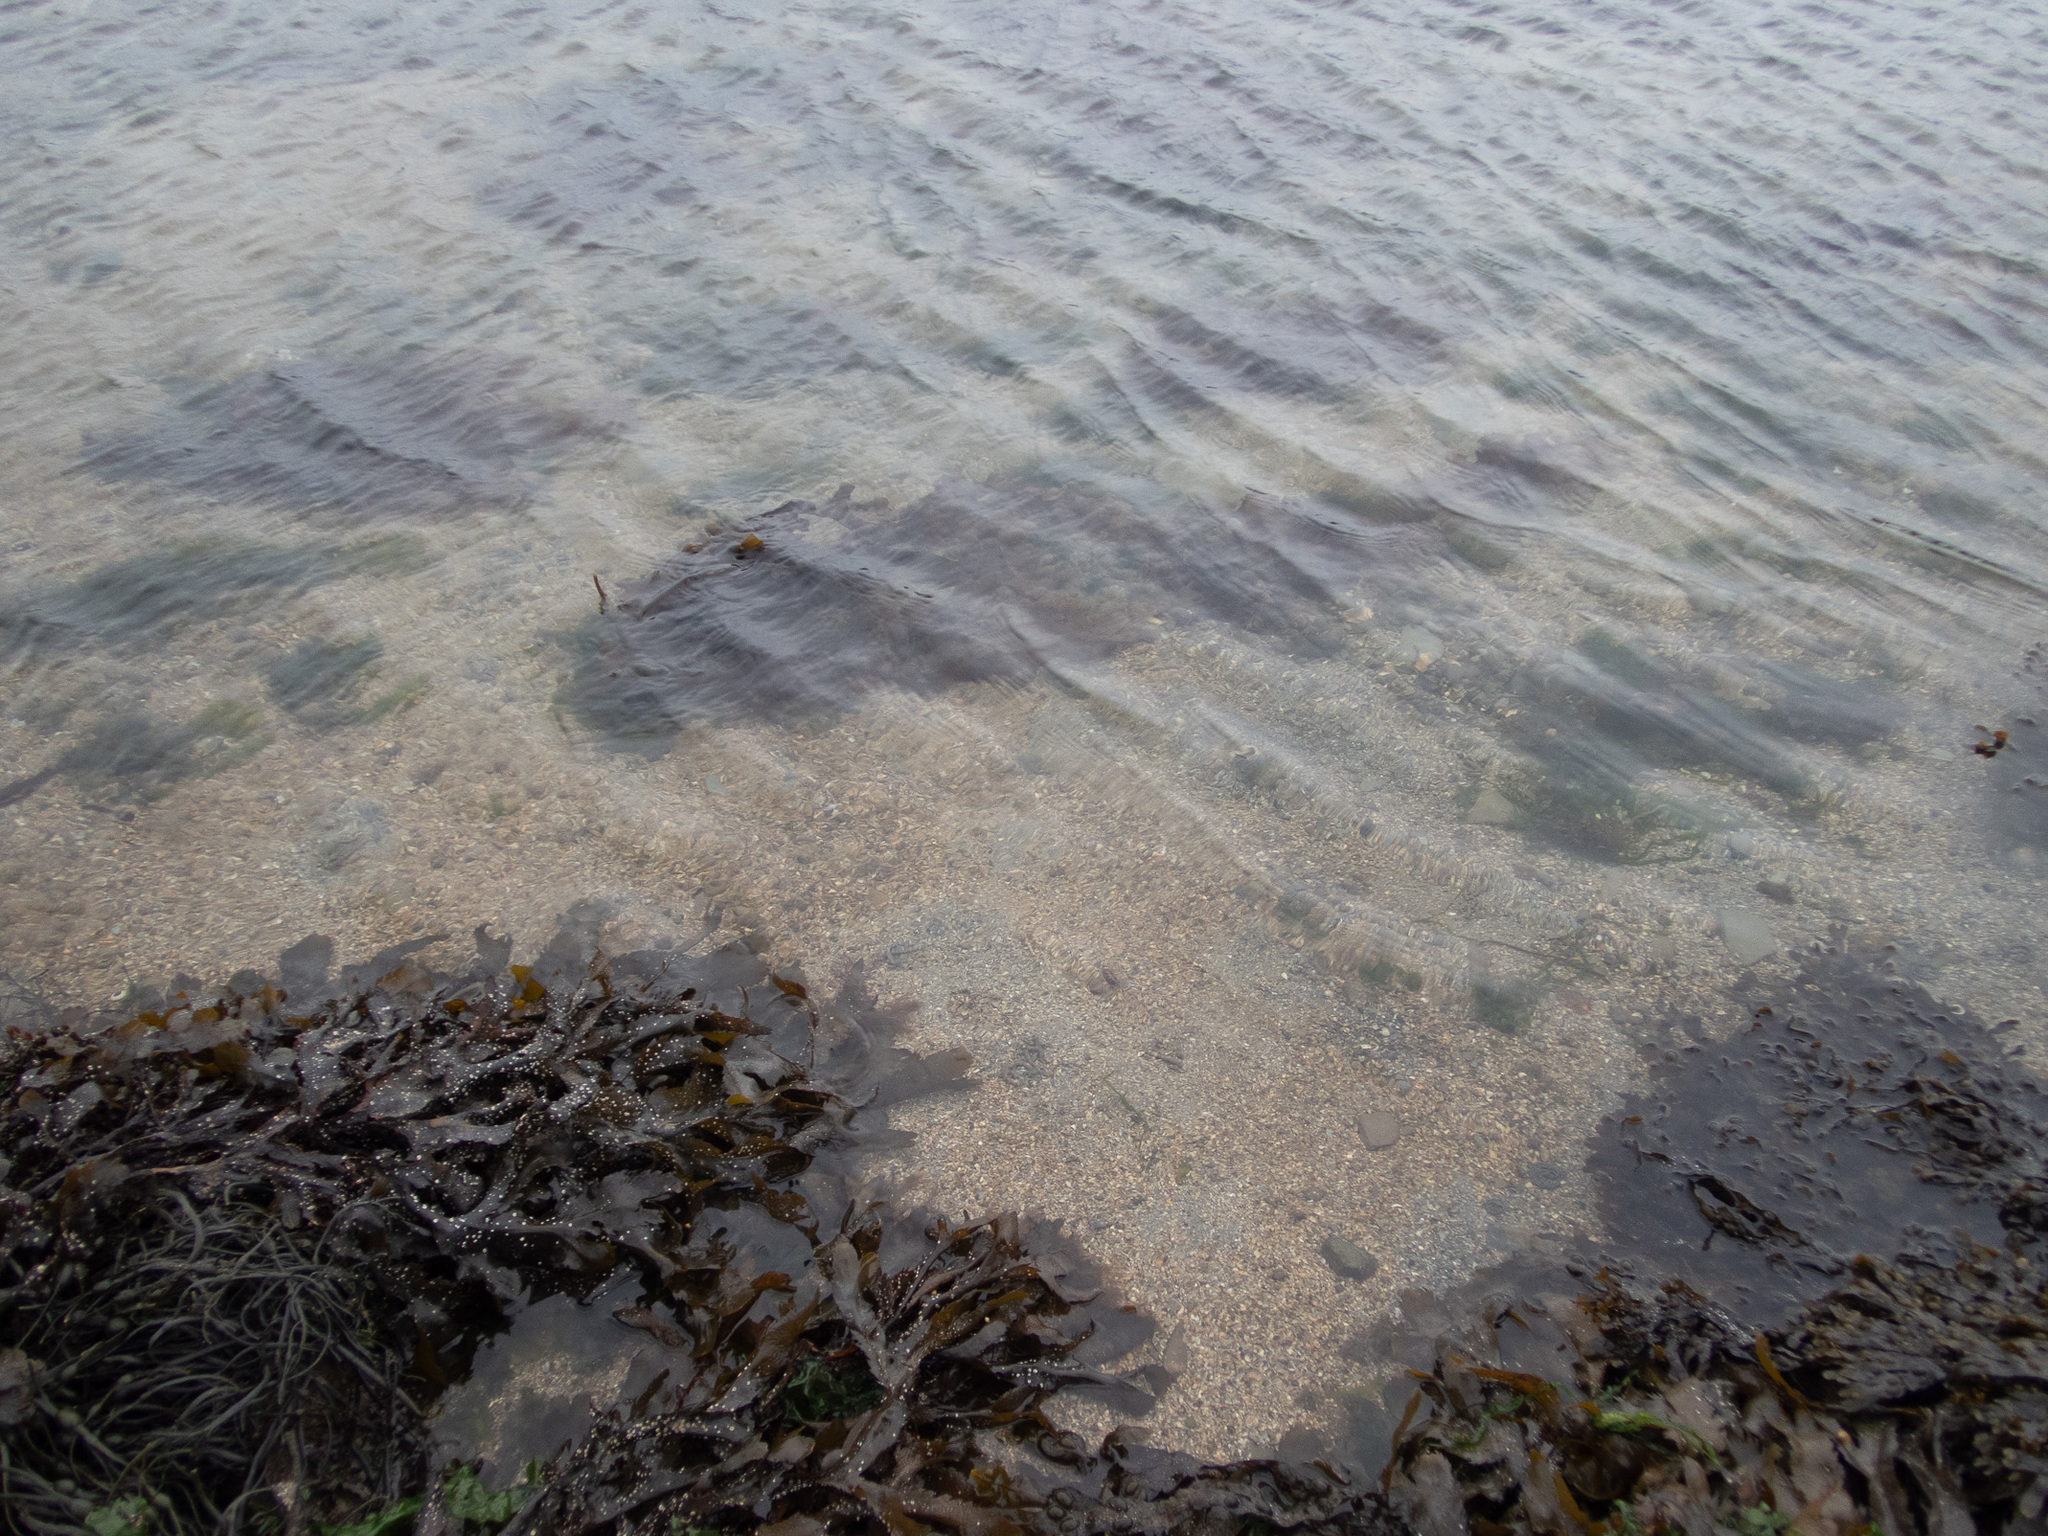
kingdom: Chromista
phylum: Ochrophyta
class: Phaeophyceae
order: Fucales
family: Fucaceae
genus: Fucus
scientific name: Fucus serratus
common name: Toothed wrack
